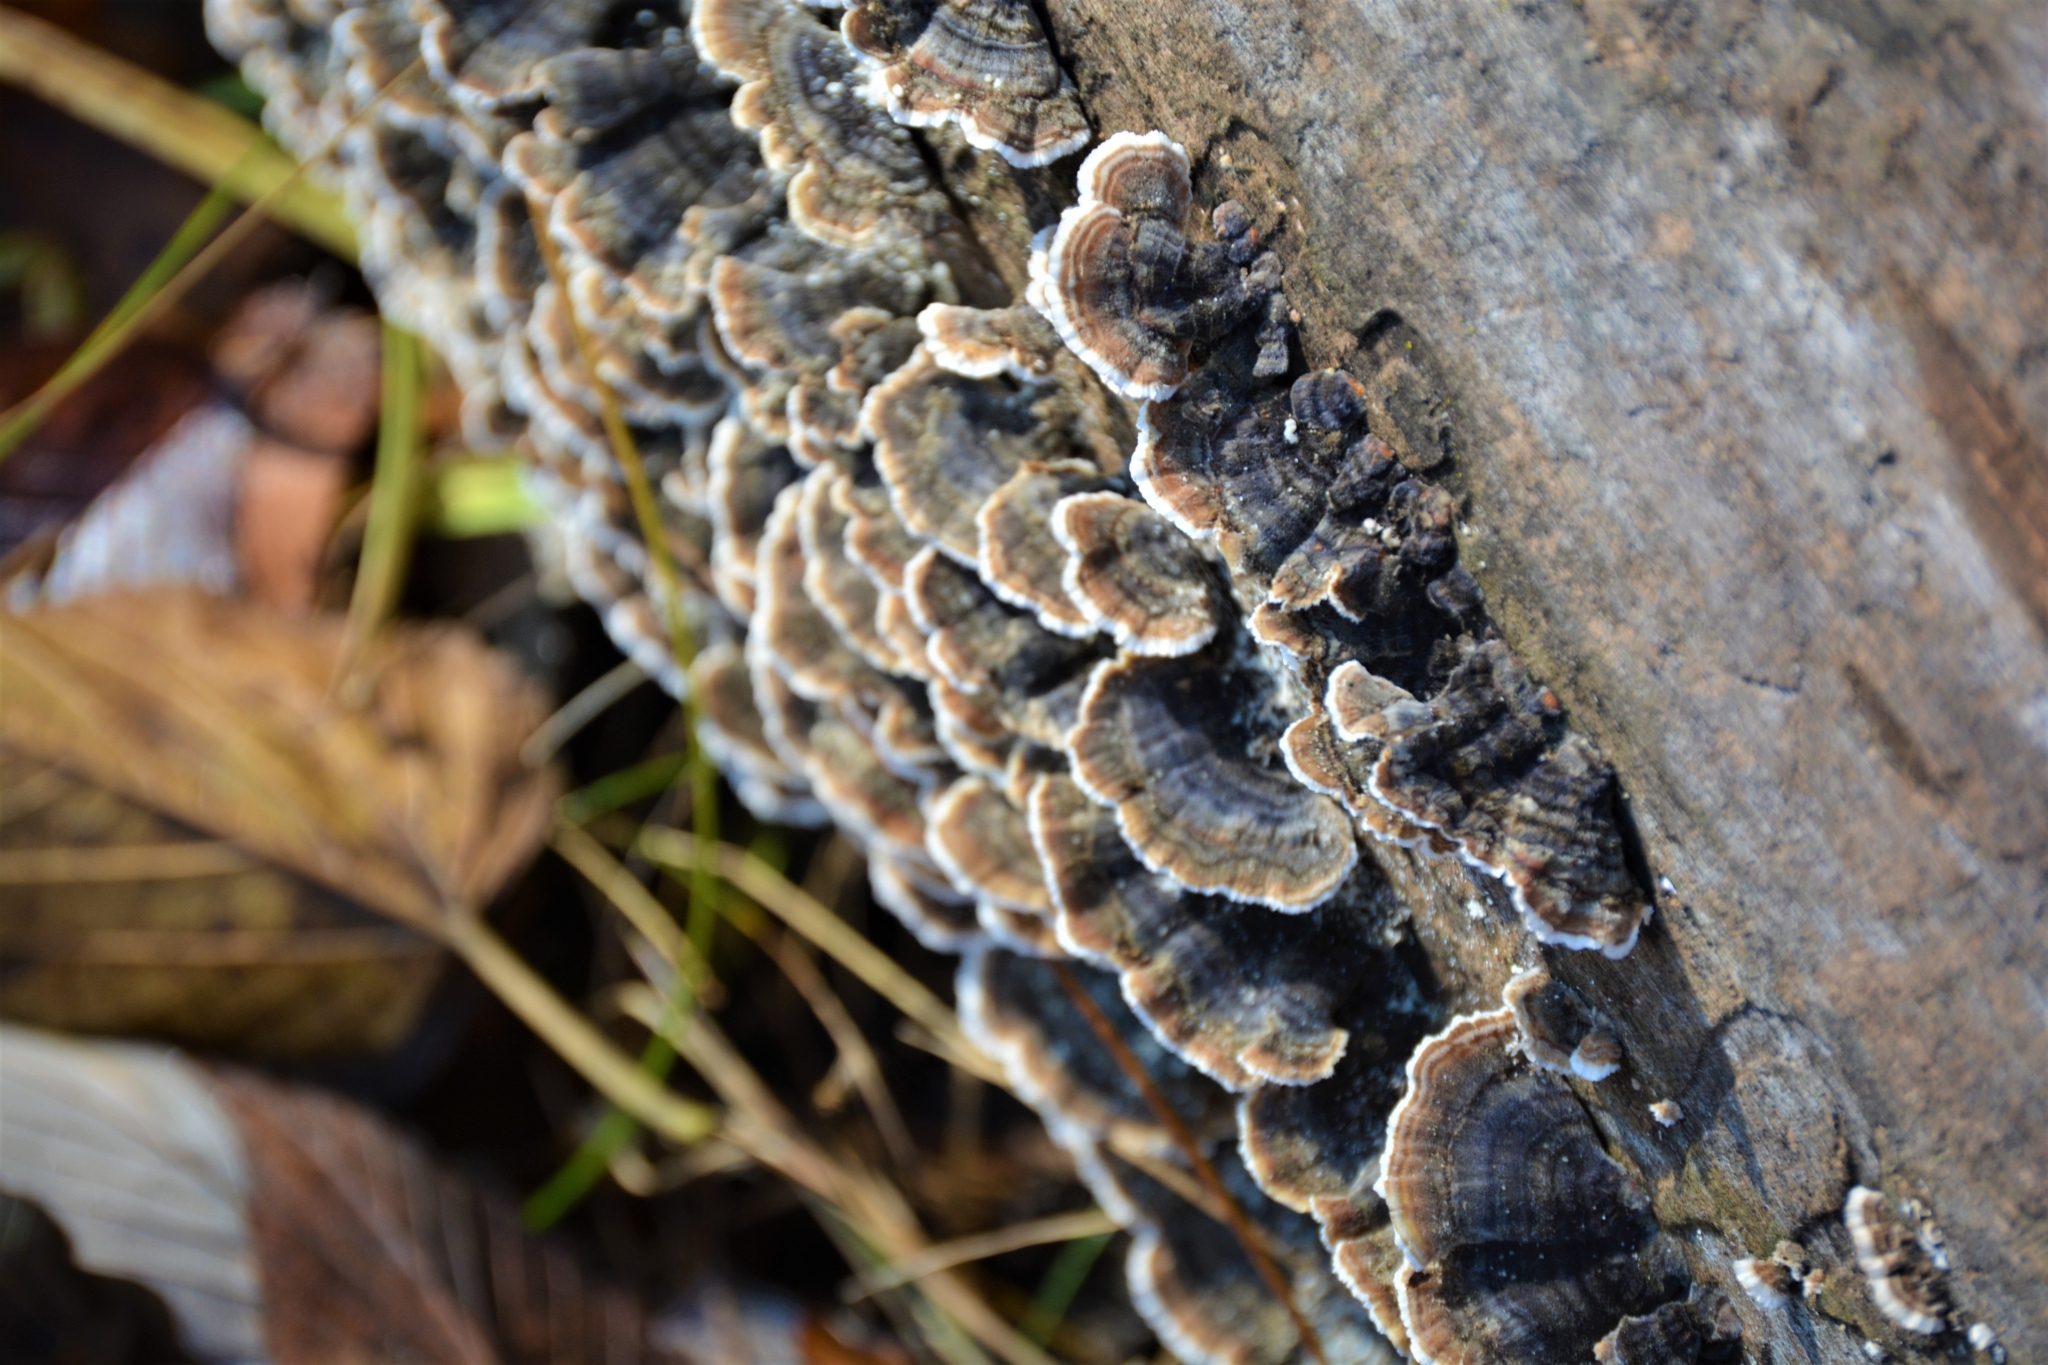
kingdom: Fungi
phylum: Basidiomycota
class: Agaricomycetes
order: Polyporales
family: Polyporaceae
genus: Trametes
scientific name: Trametes versicolor
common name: Turkeytail
